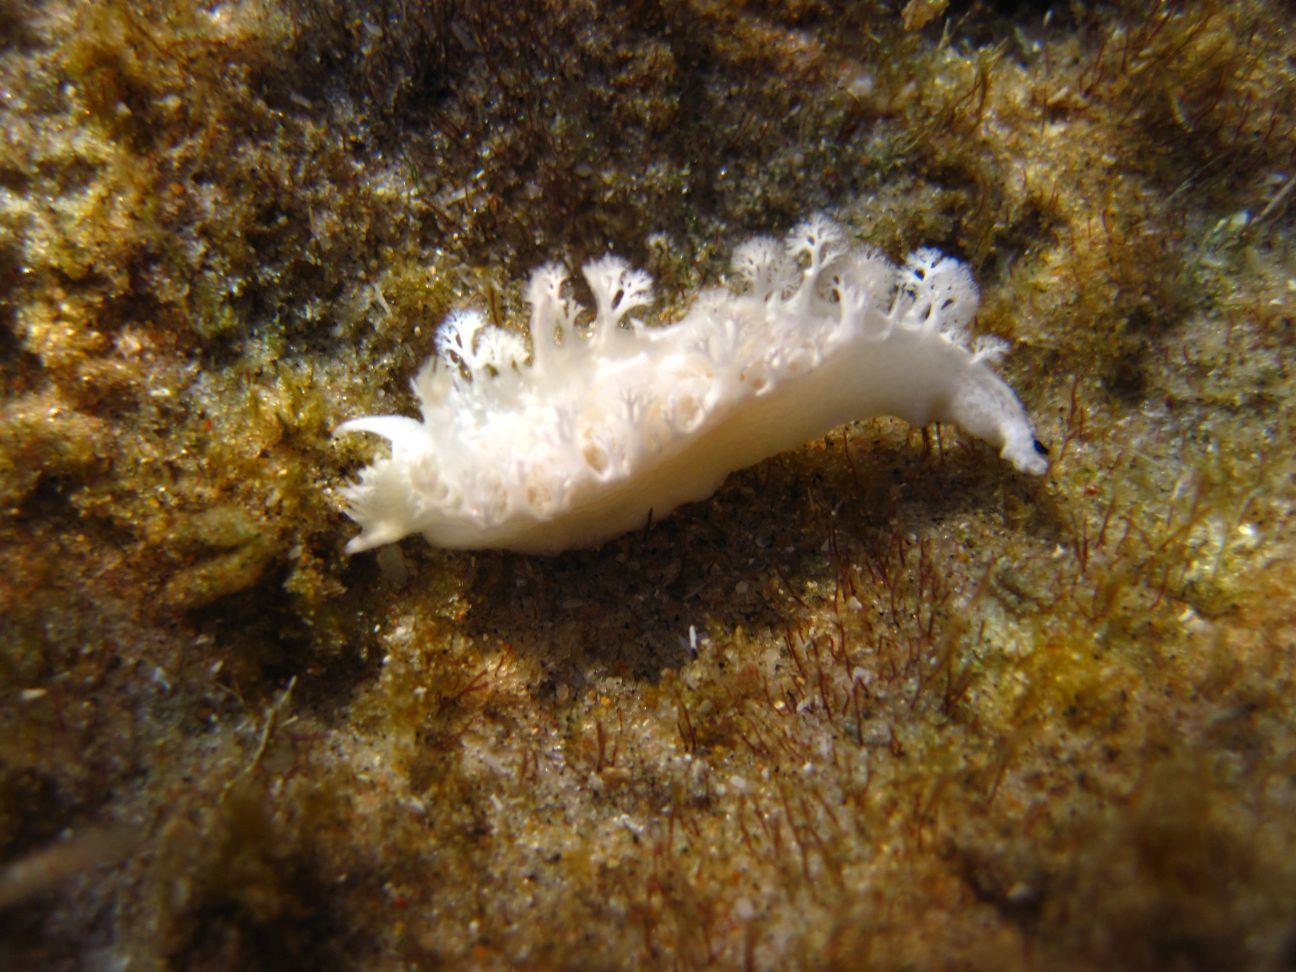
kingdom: Animalia
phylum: Mollusca
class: Gastropoda
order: Nudibranchia
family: Tritoniidae
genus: Tritoniopsis
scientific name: Tritoniopsis elegans
